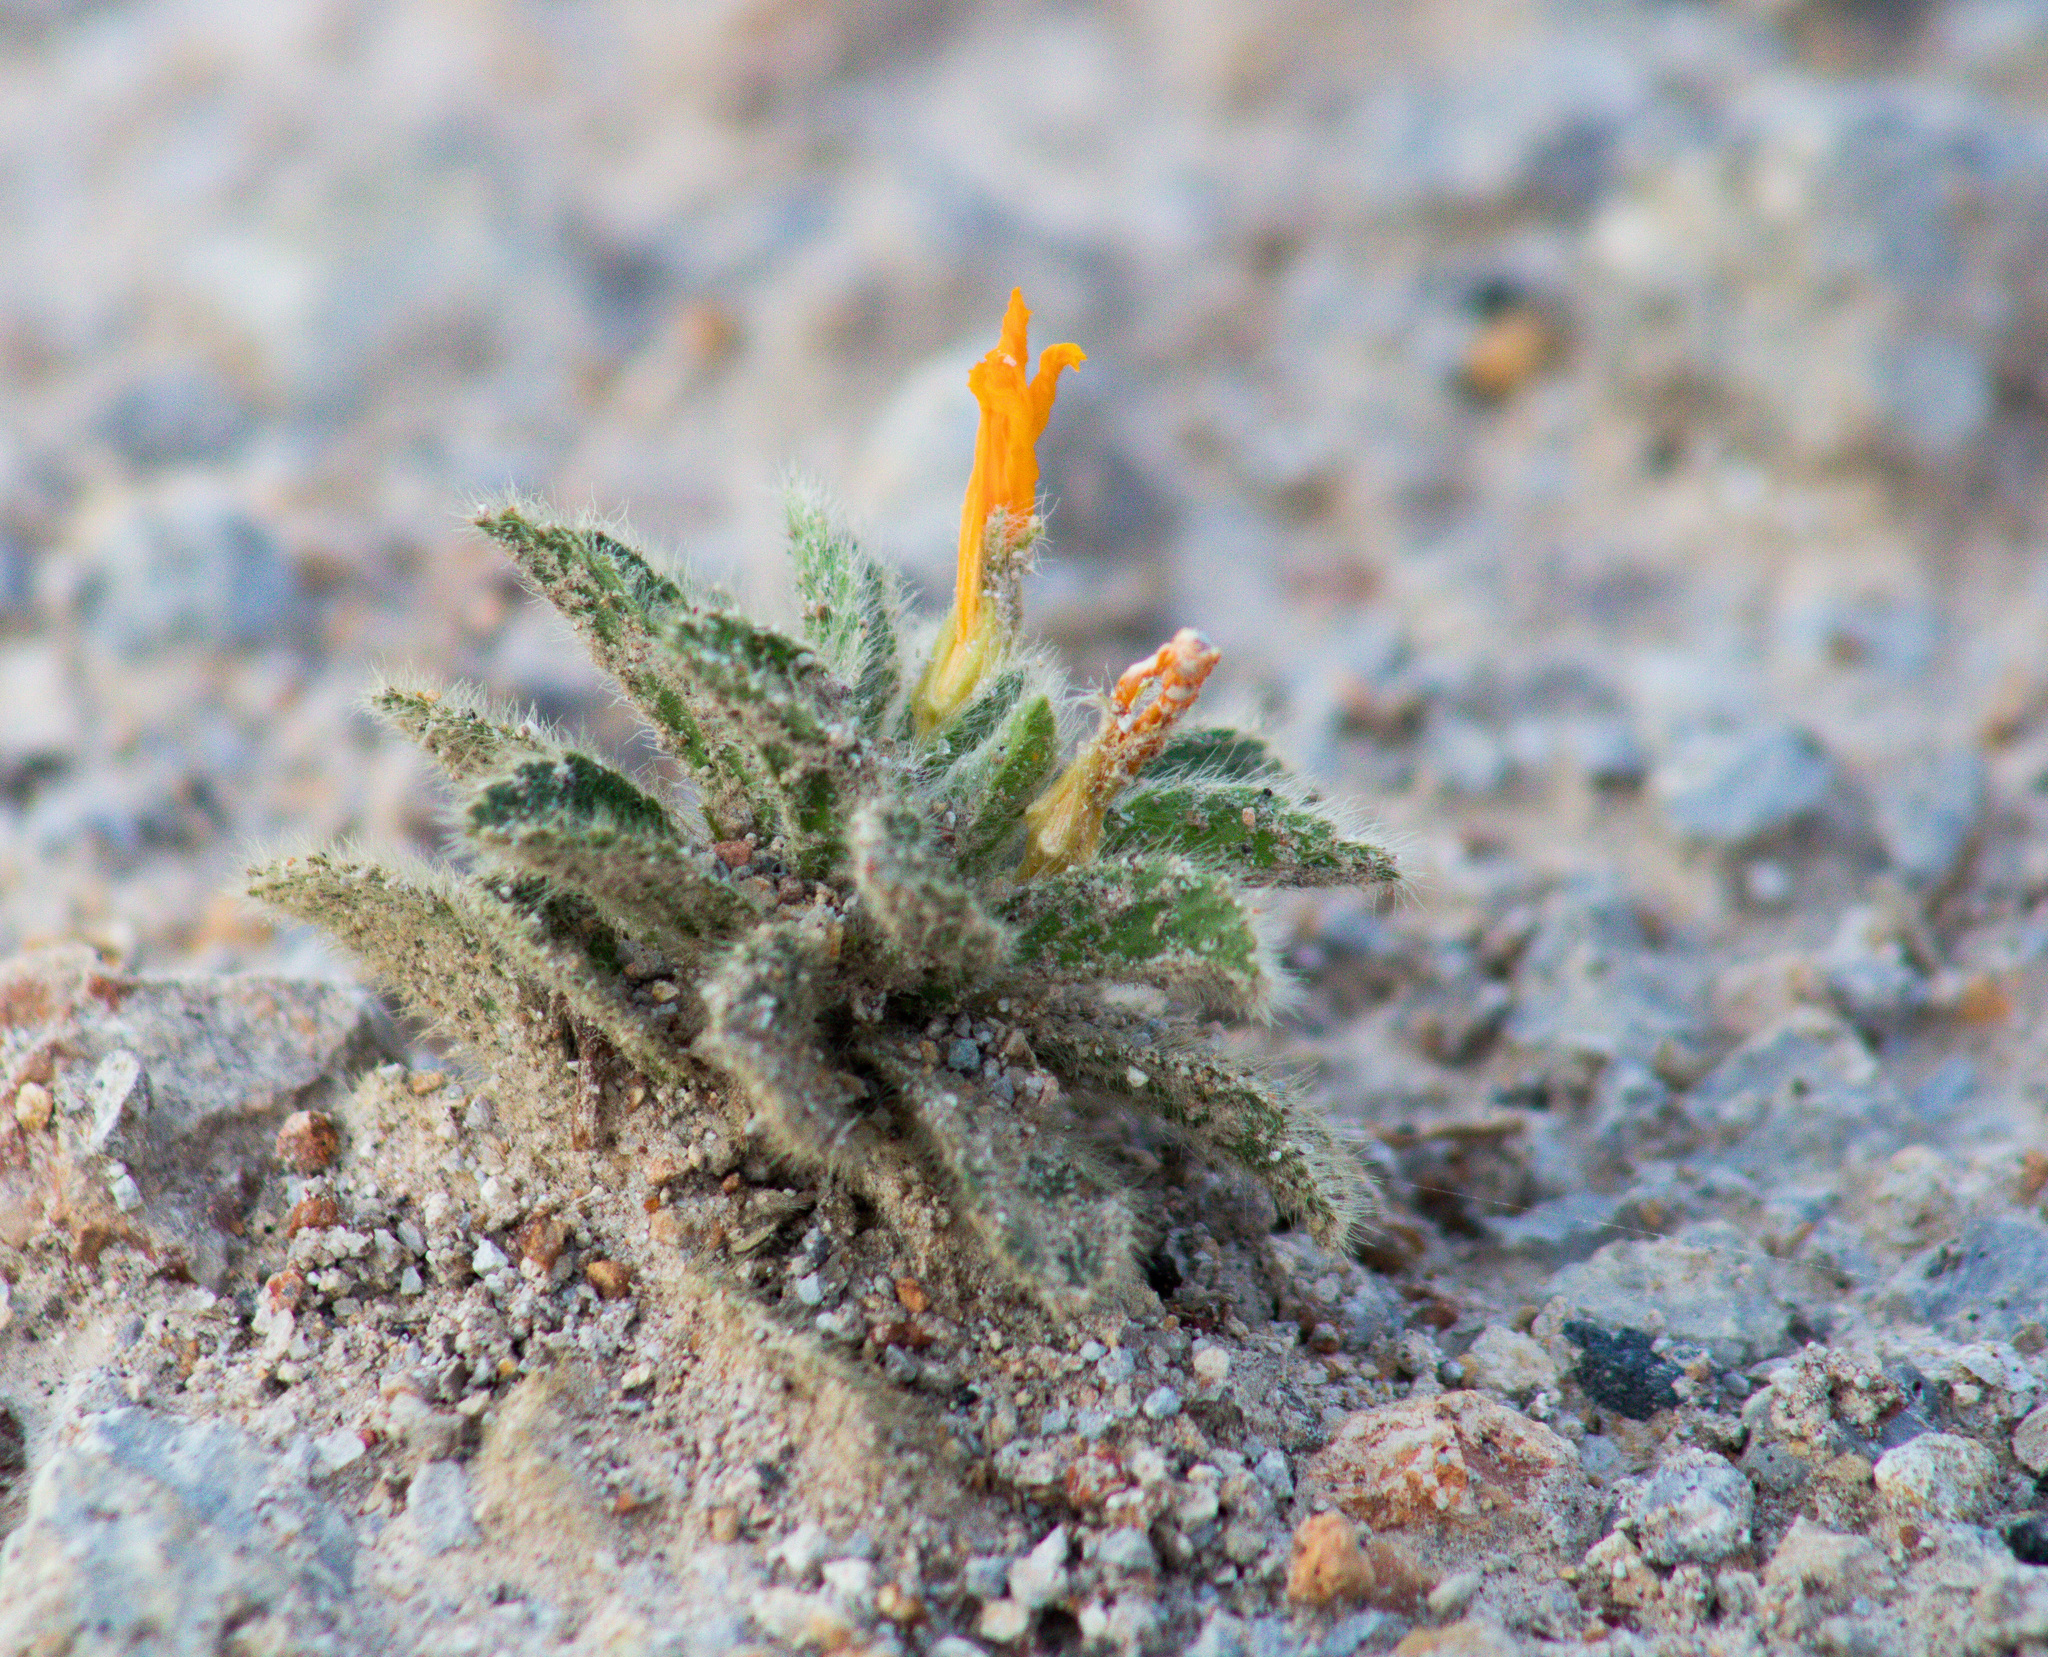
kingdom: Plantae
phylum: Tracheophyta
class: Magnoliopsida
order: Malpighiales
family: Turneraceae
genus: Turnera
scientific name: Turnera callosa
